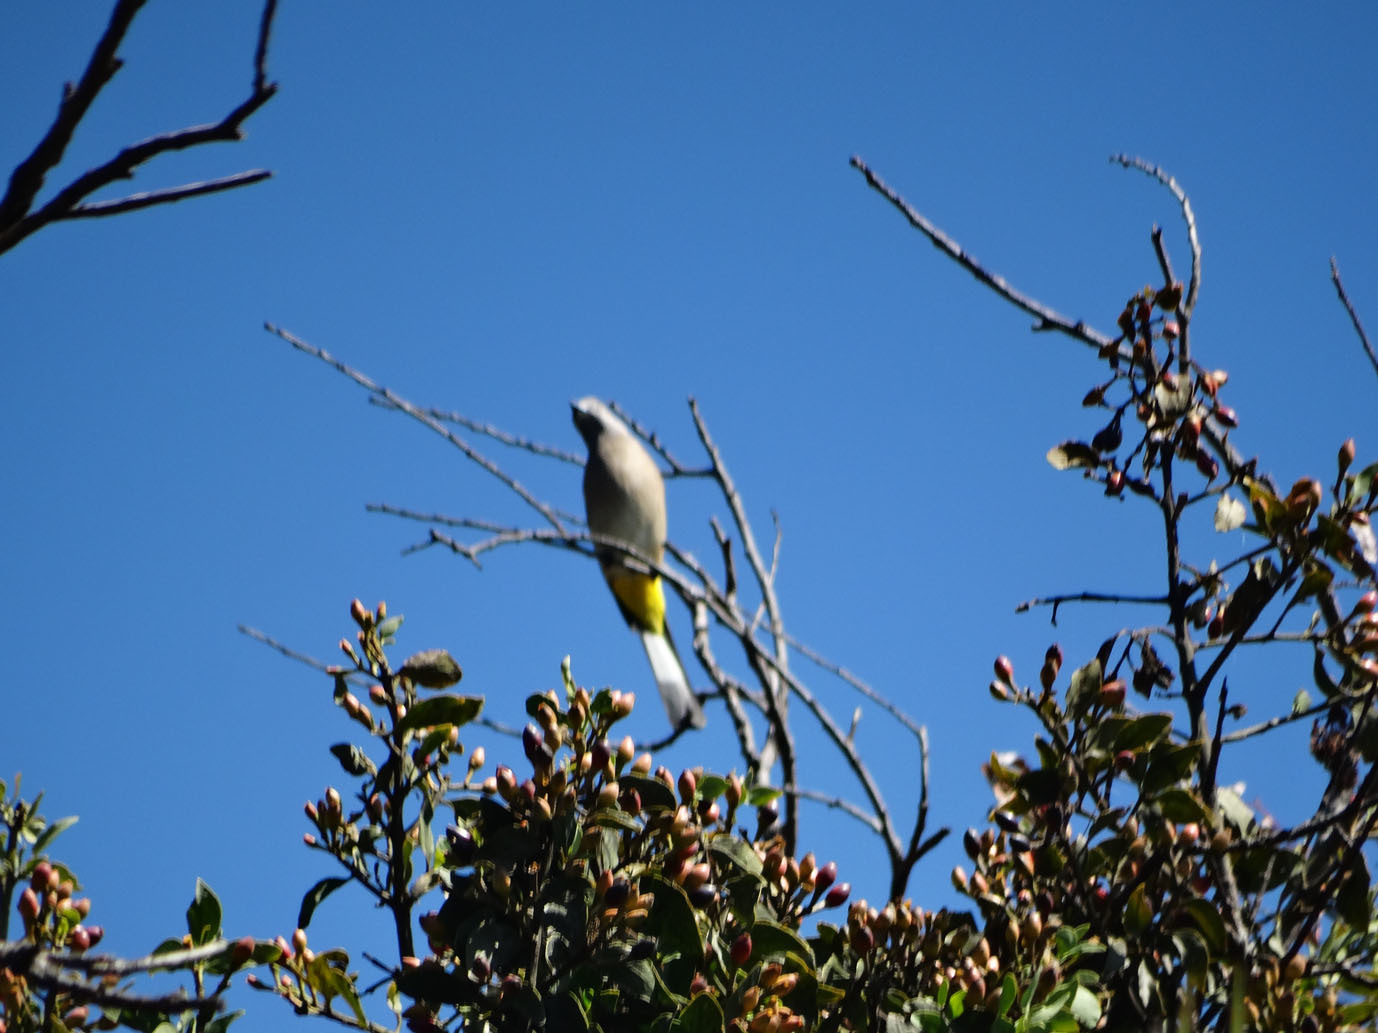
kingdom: Animalia
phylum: Chordata
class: Aves
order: Passeriformes
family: Ptilogonatidae
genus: Ptilogonys
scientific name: Ptilogonys cinereus
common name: Gray silky-flycatcher
